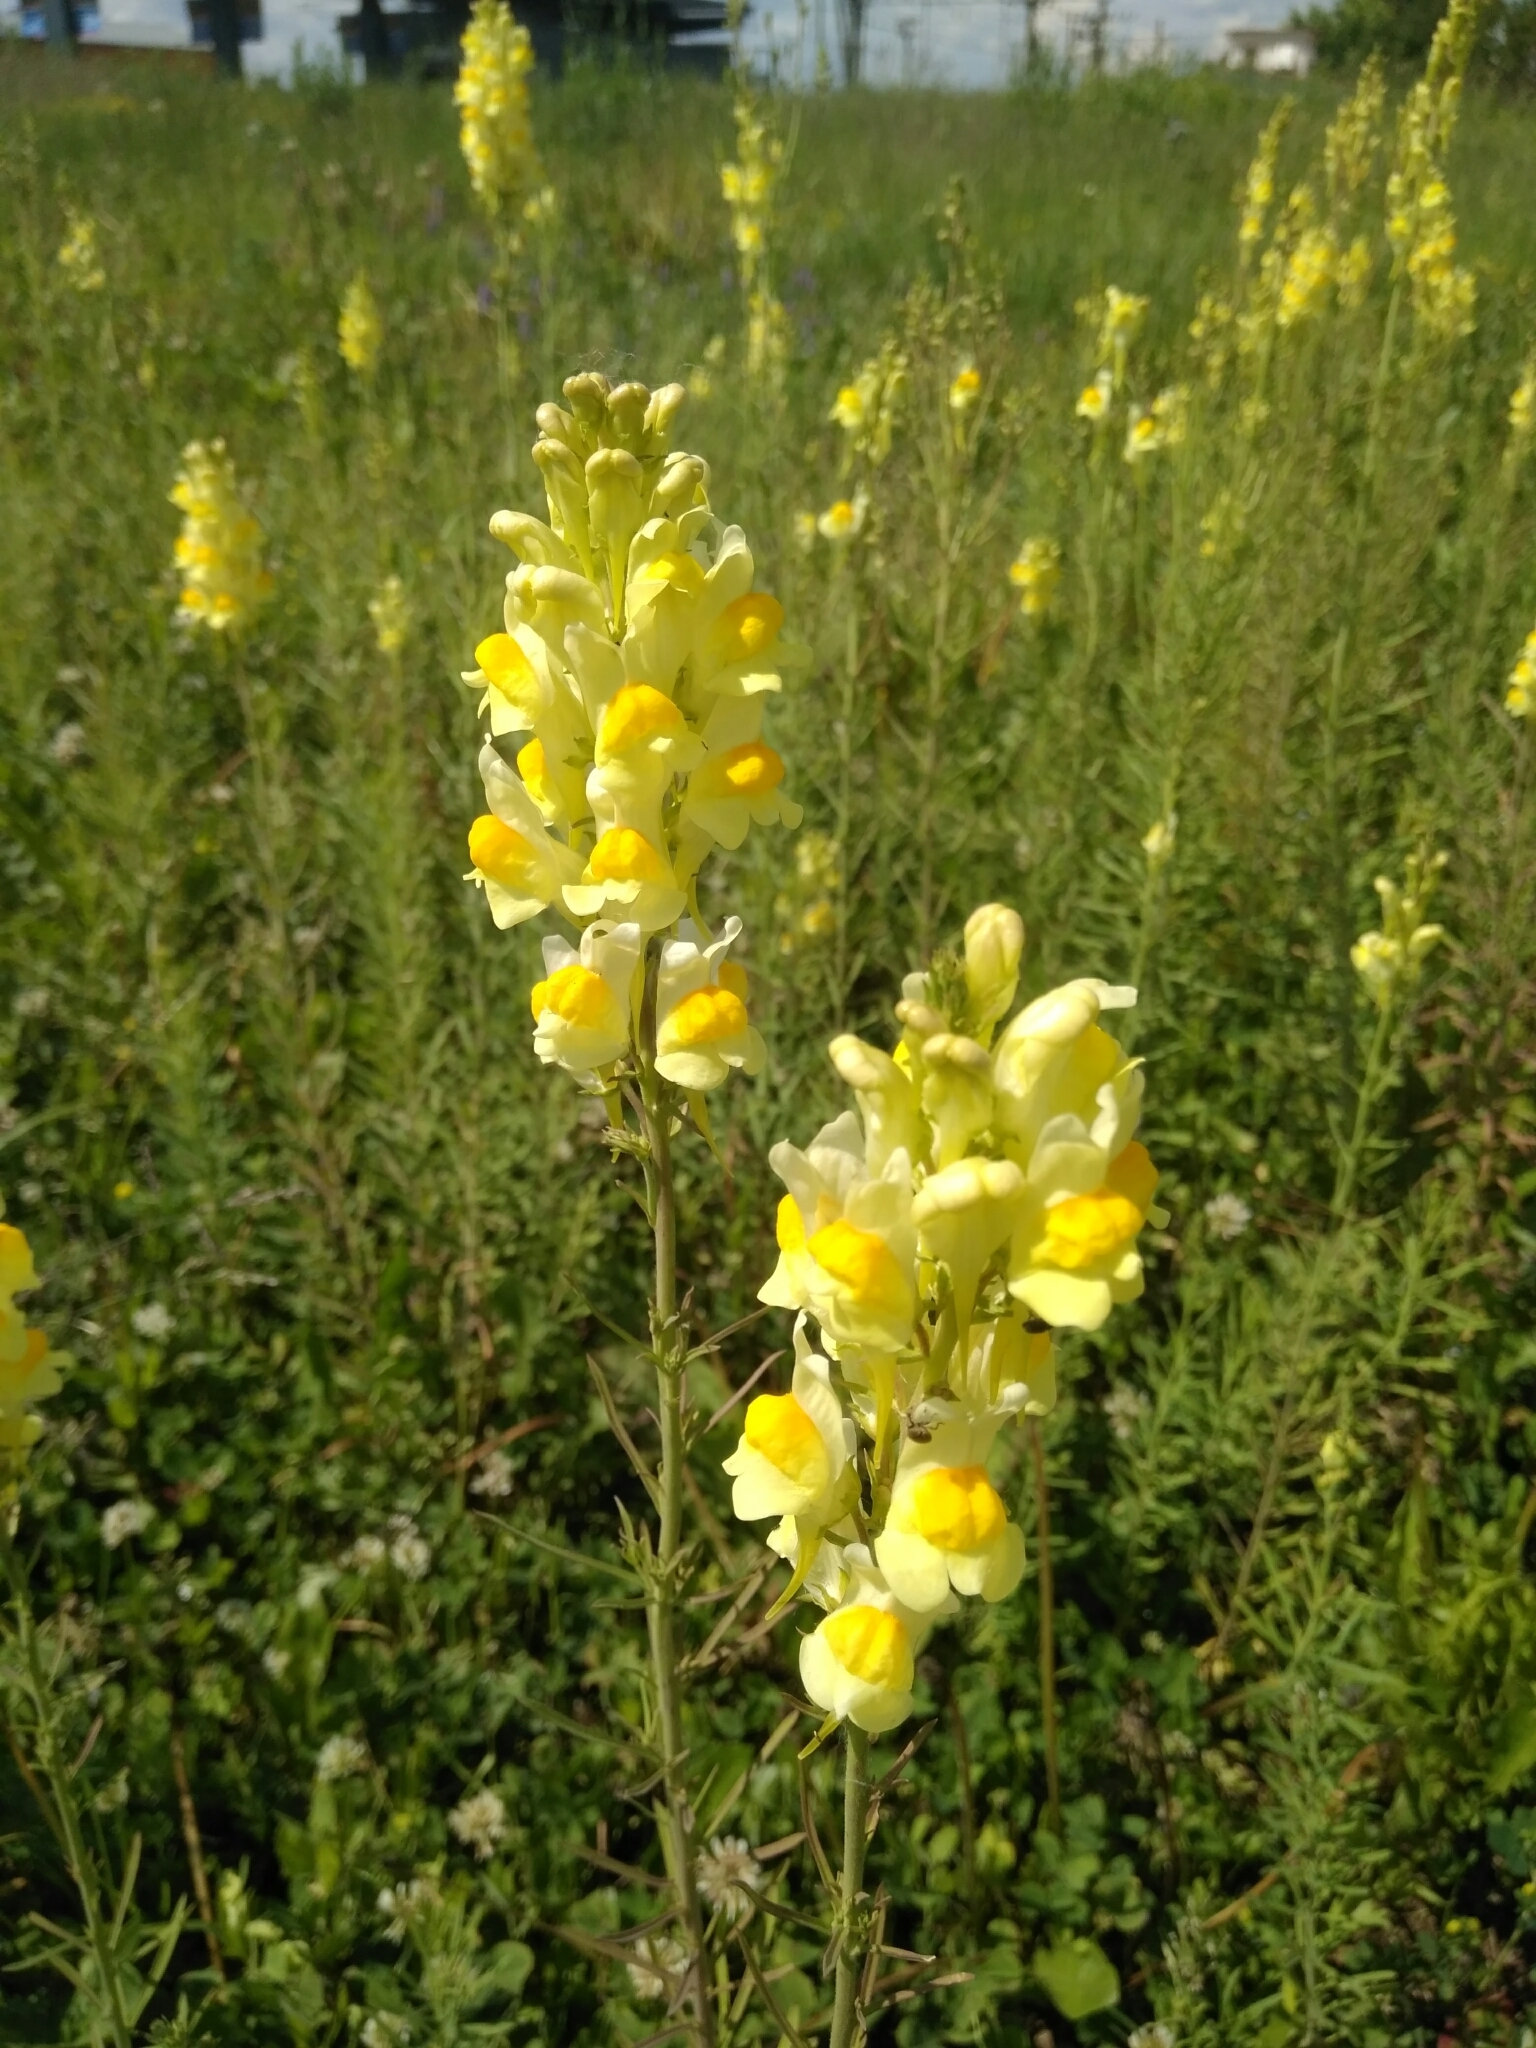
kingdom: Plantae
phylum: Tracheophyta
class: Magnoliopsida
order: Lamiales
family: Plantaginaceae
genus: Linaria
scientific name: Linaria vulgaris
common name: Butter and eggs
